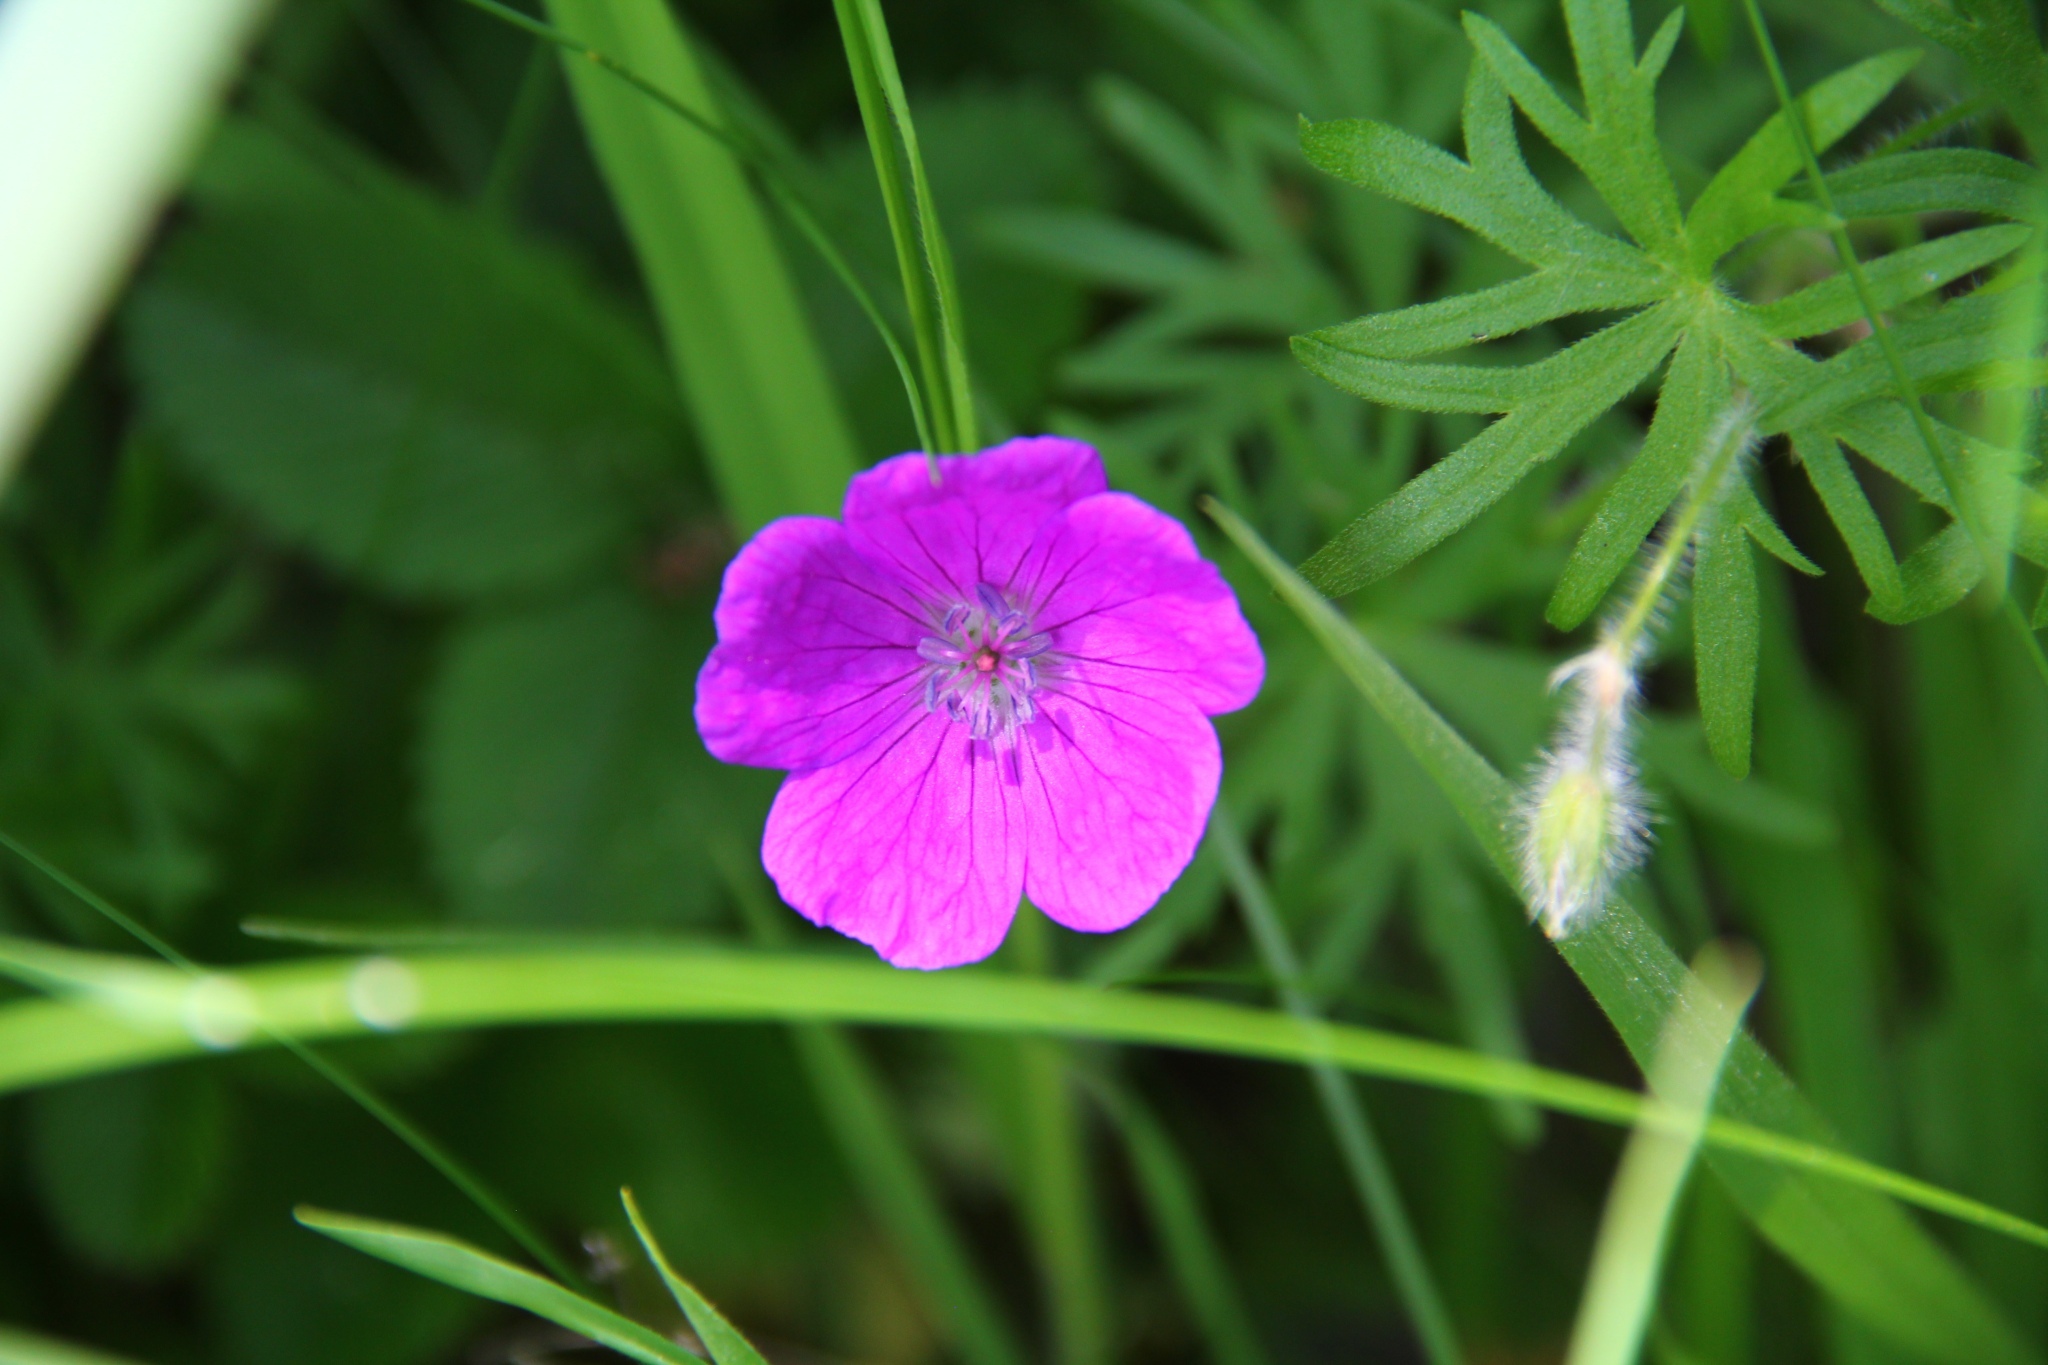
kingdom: Plantae
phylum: Tracheophyta
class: Magnoliopsida
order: Geraniales
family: Geraniaceae
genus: Geranium
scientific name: Geranium sanguineum
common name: Bloody crane's-bill
